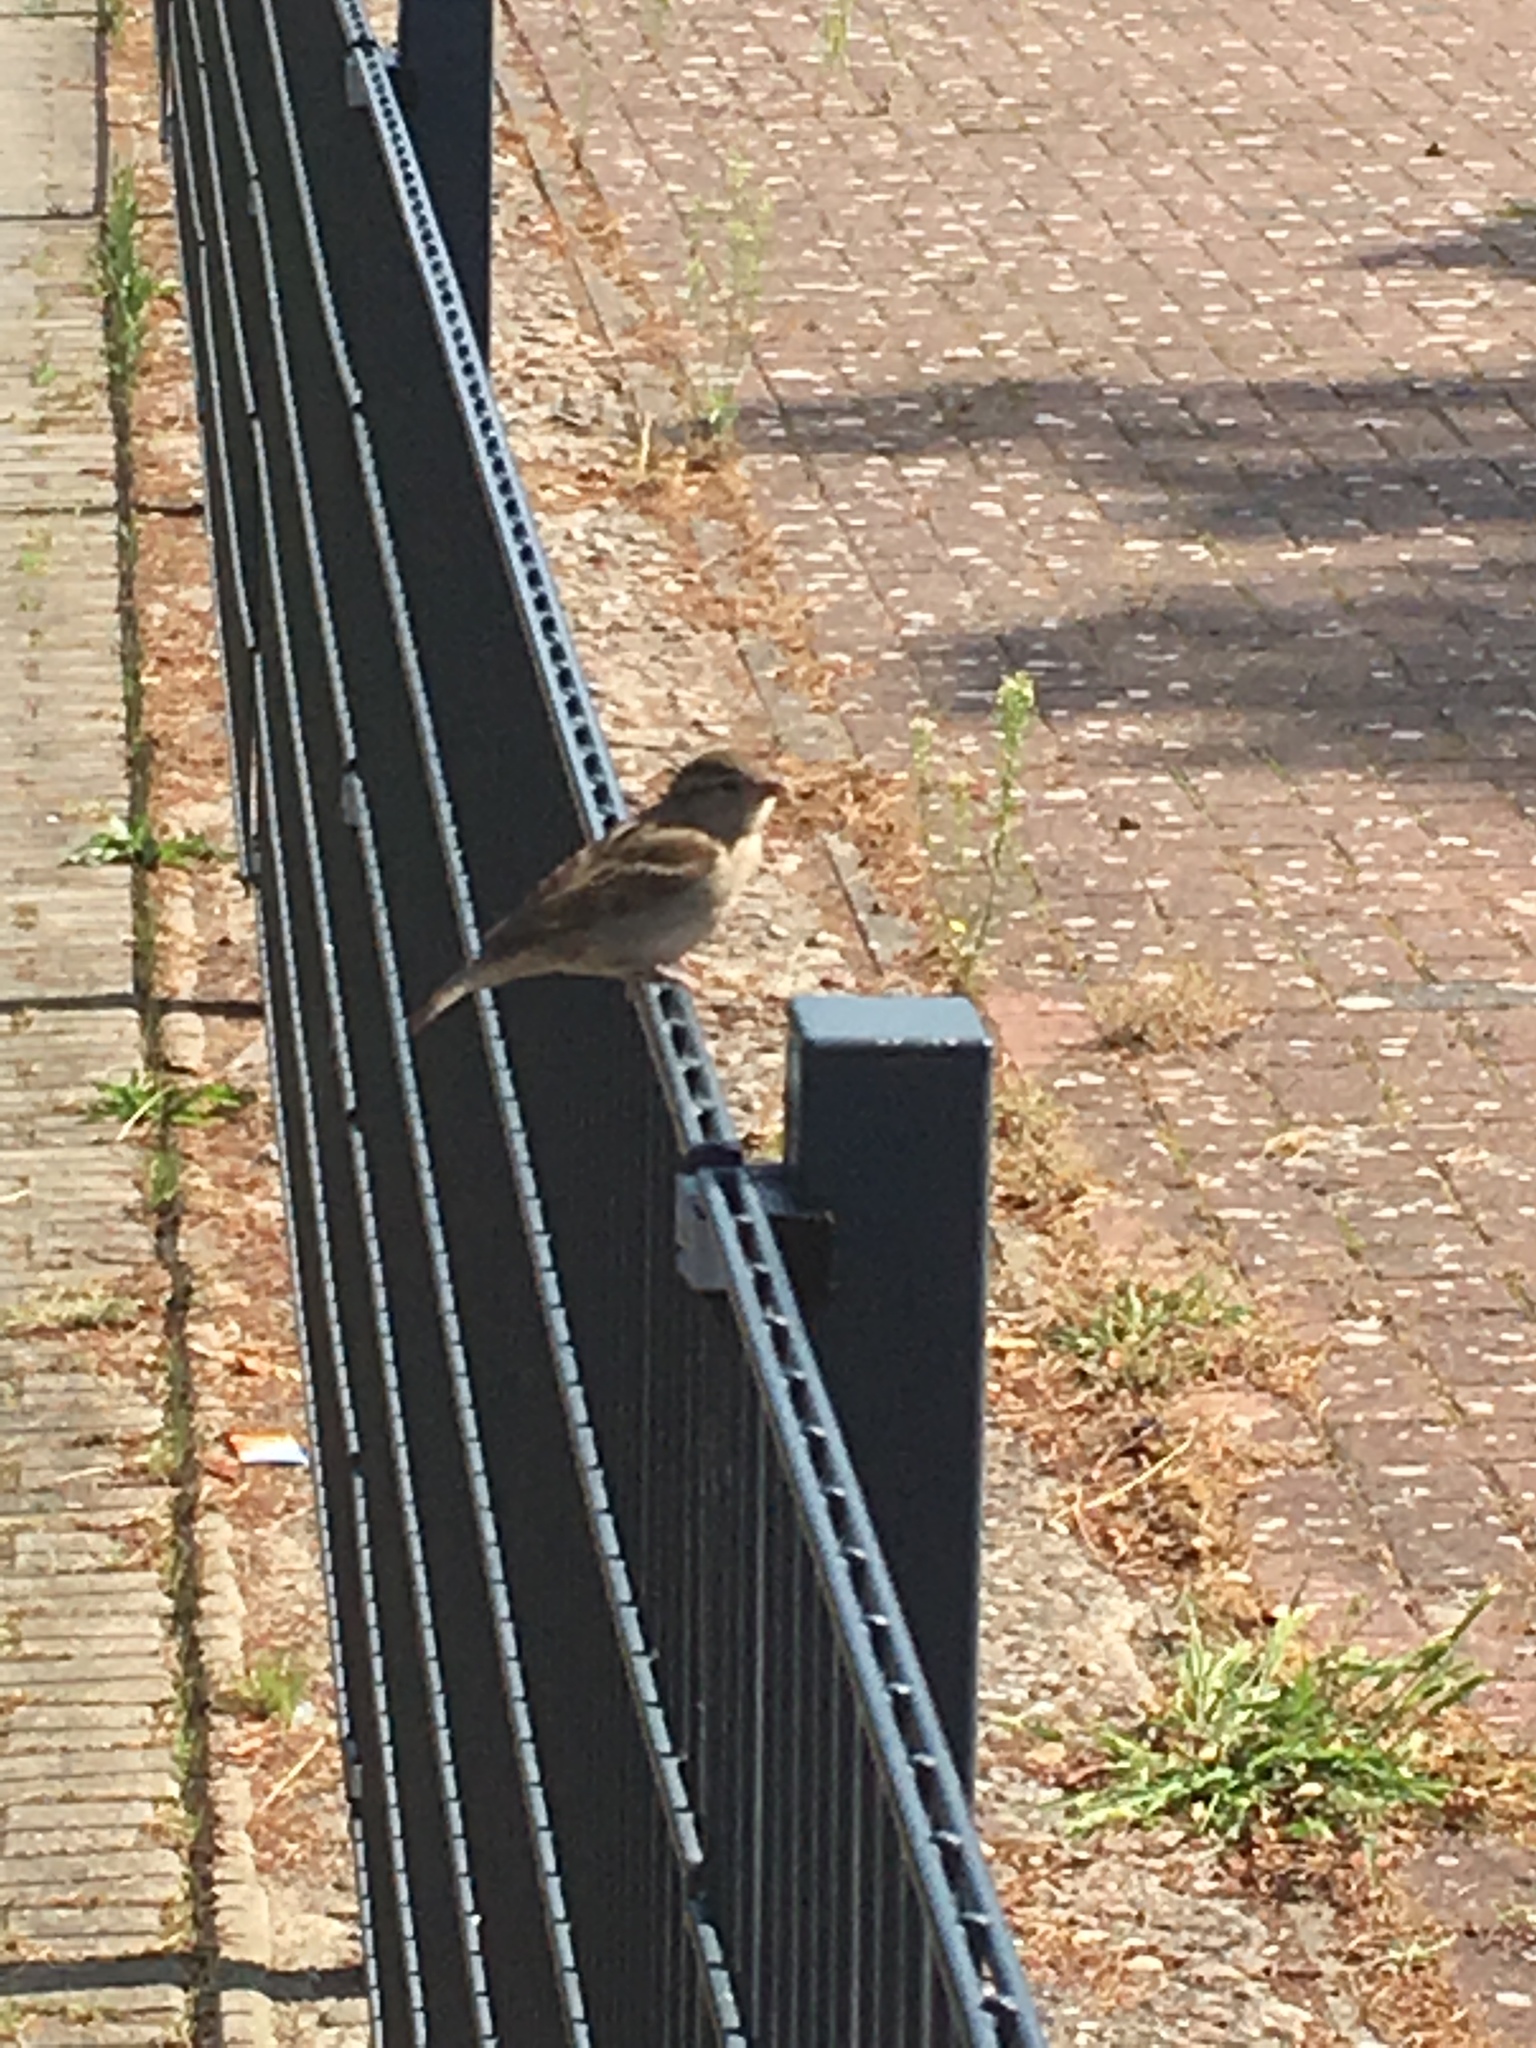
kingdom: Animalia
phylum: Chordata
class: Aves
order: Passeriformes
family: Passeridae
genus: Passer
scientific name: Passer domesticus
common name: House sparrow
